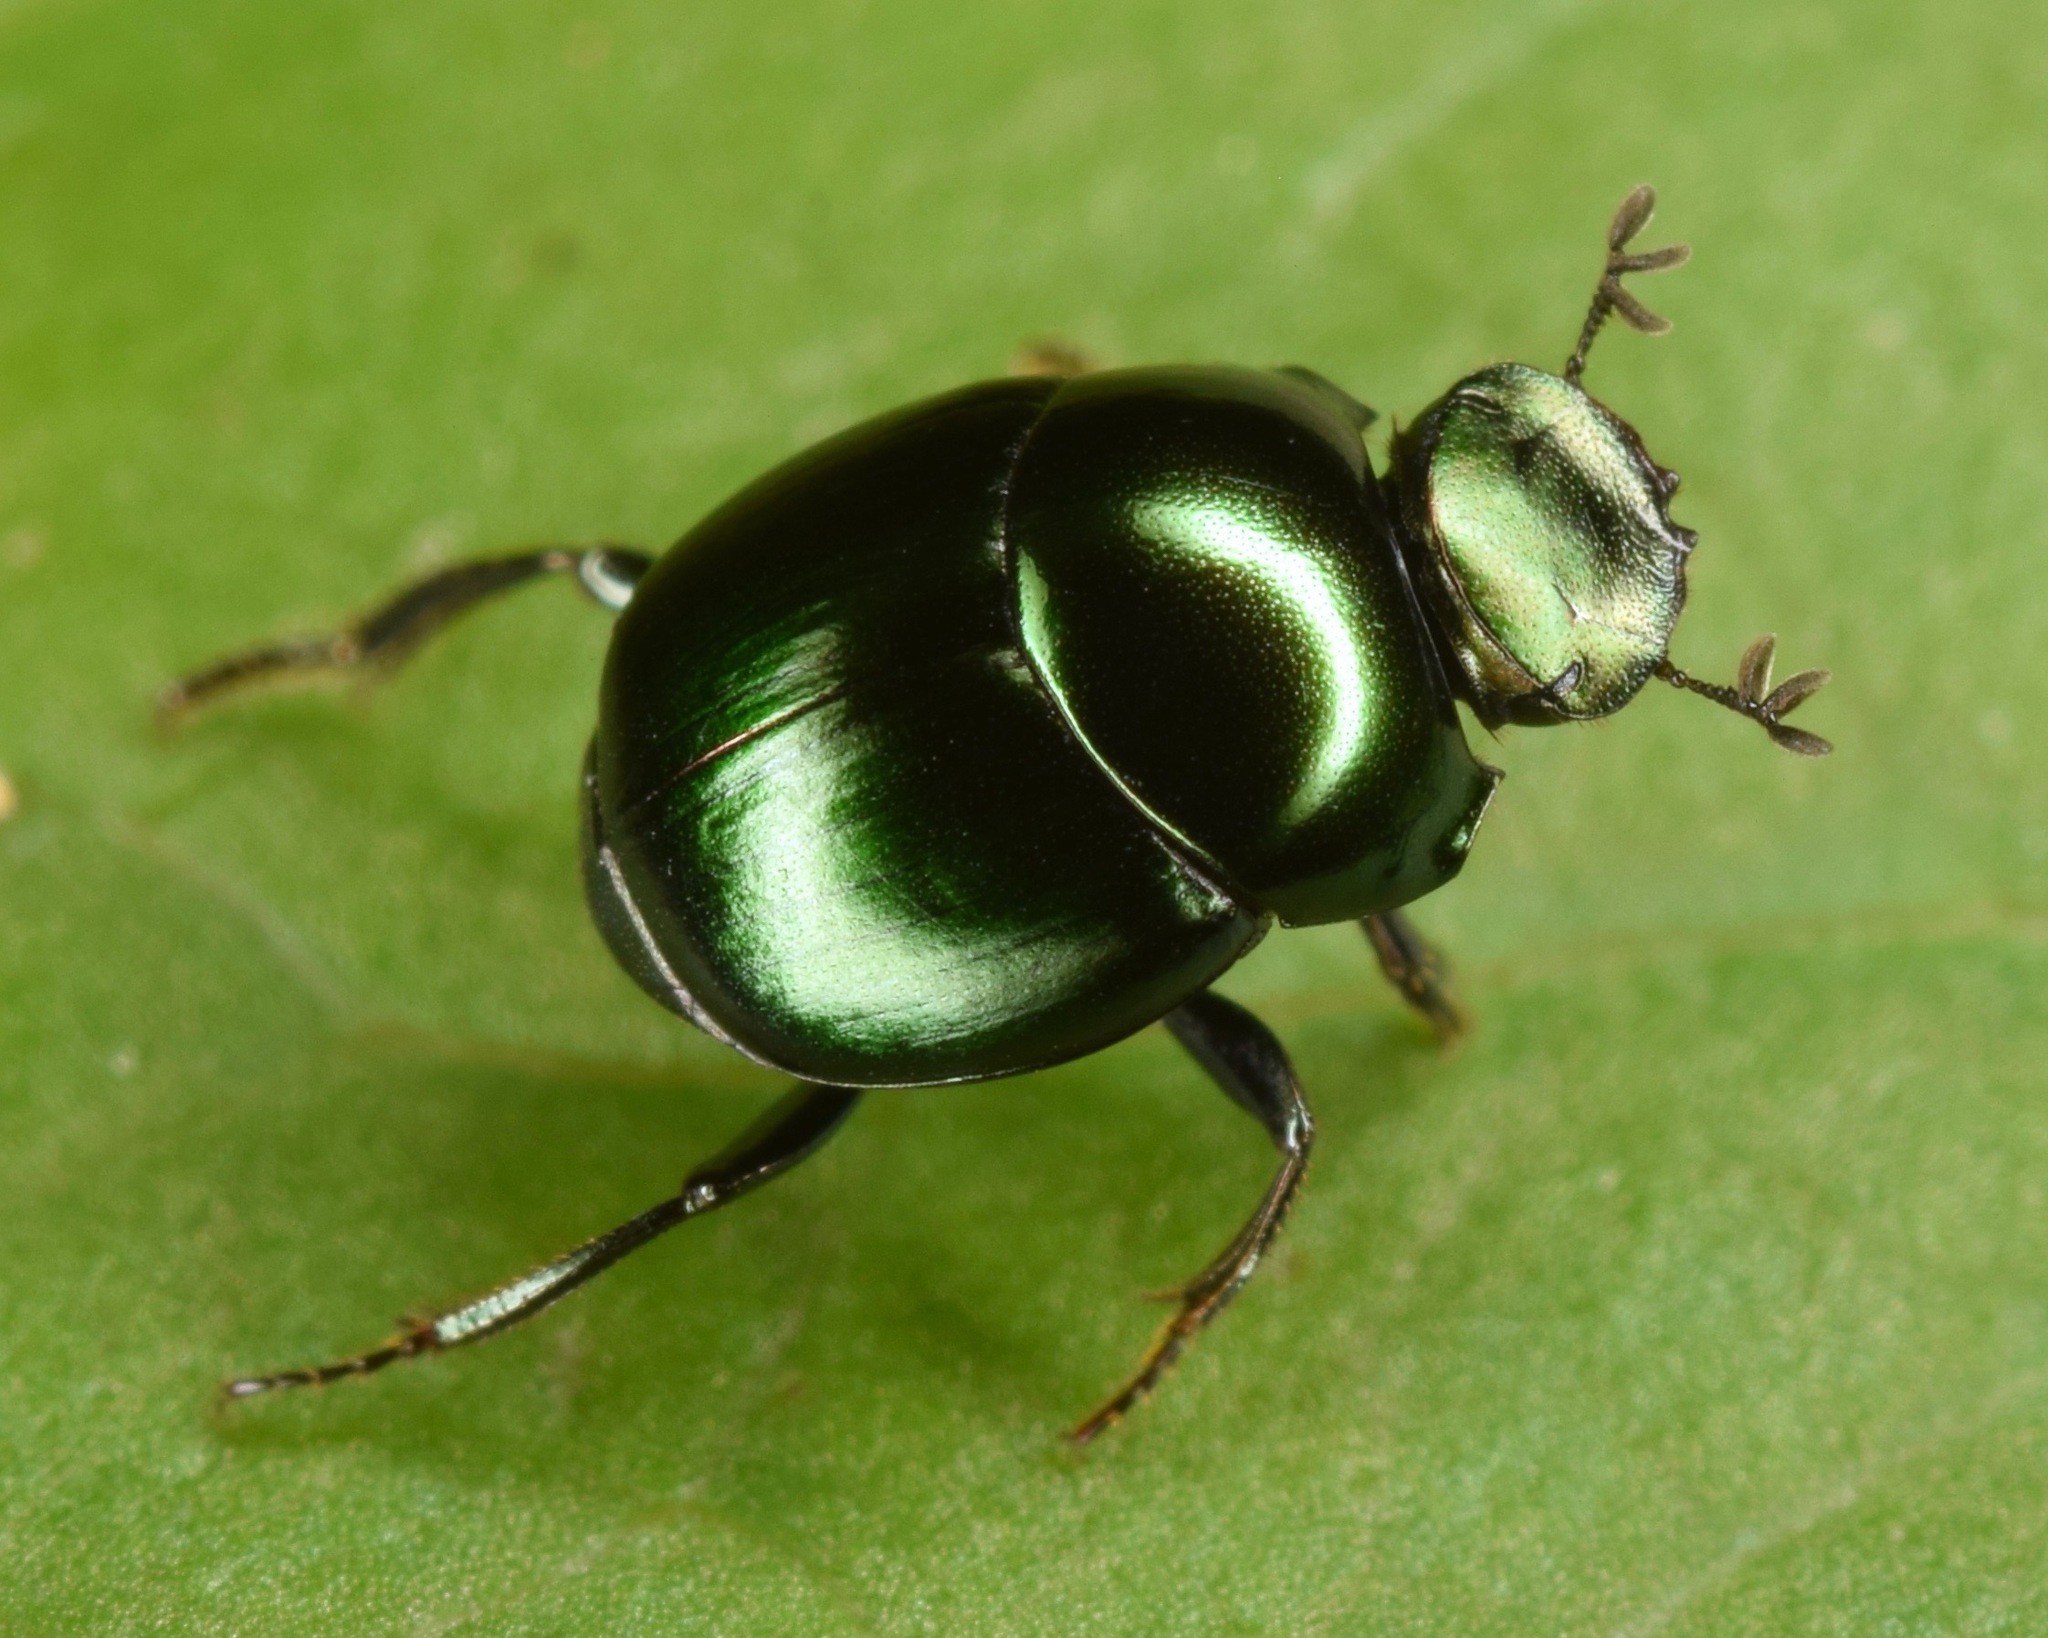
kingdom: Animalia
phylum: Arthropoda
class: Insecta
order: Coleoptera
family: Scarabaeidae
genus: Canthon
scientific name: Canthon viridis
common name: Tumblebug
